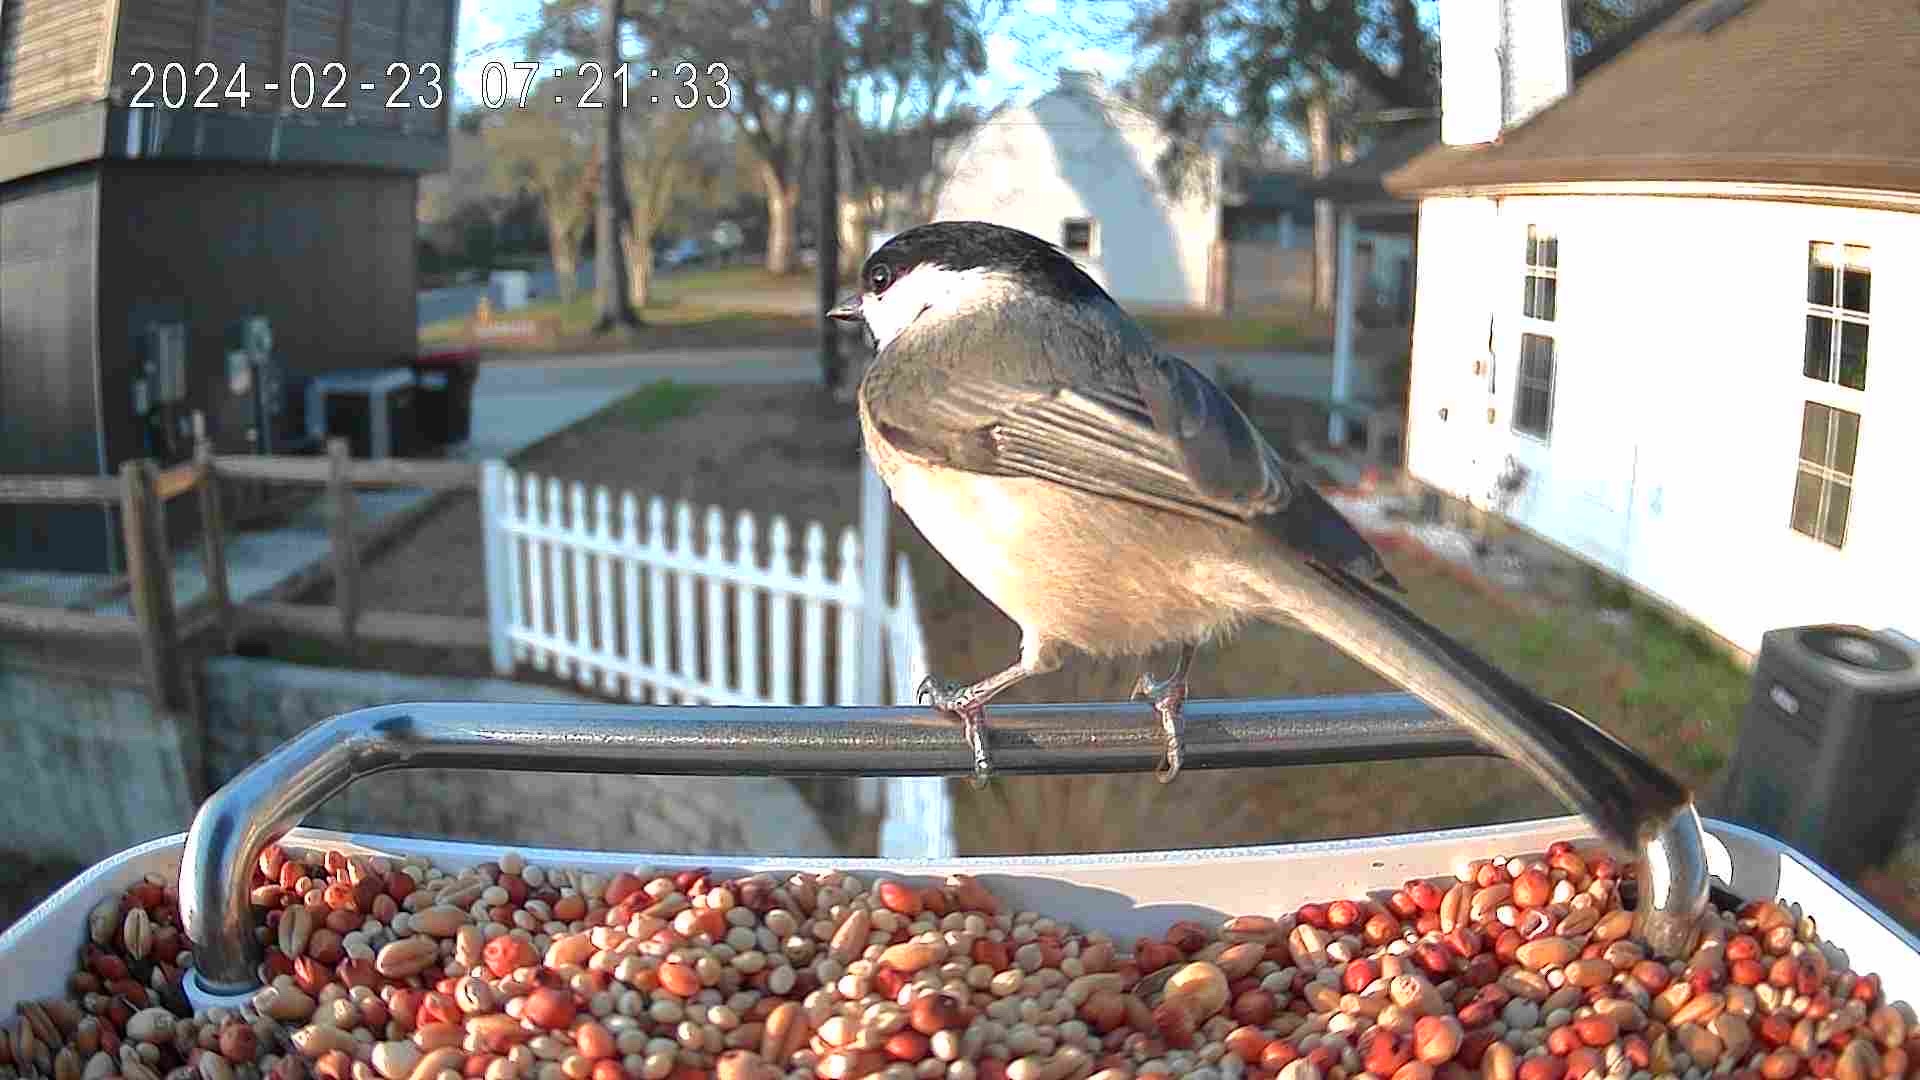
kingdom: Animalia
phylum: Chordata
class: Aves
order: Passeriformes
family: Paridae
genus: Poecile
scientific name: Poecile carolinensis
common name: Carolina chickadee
